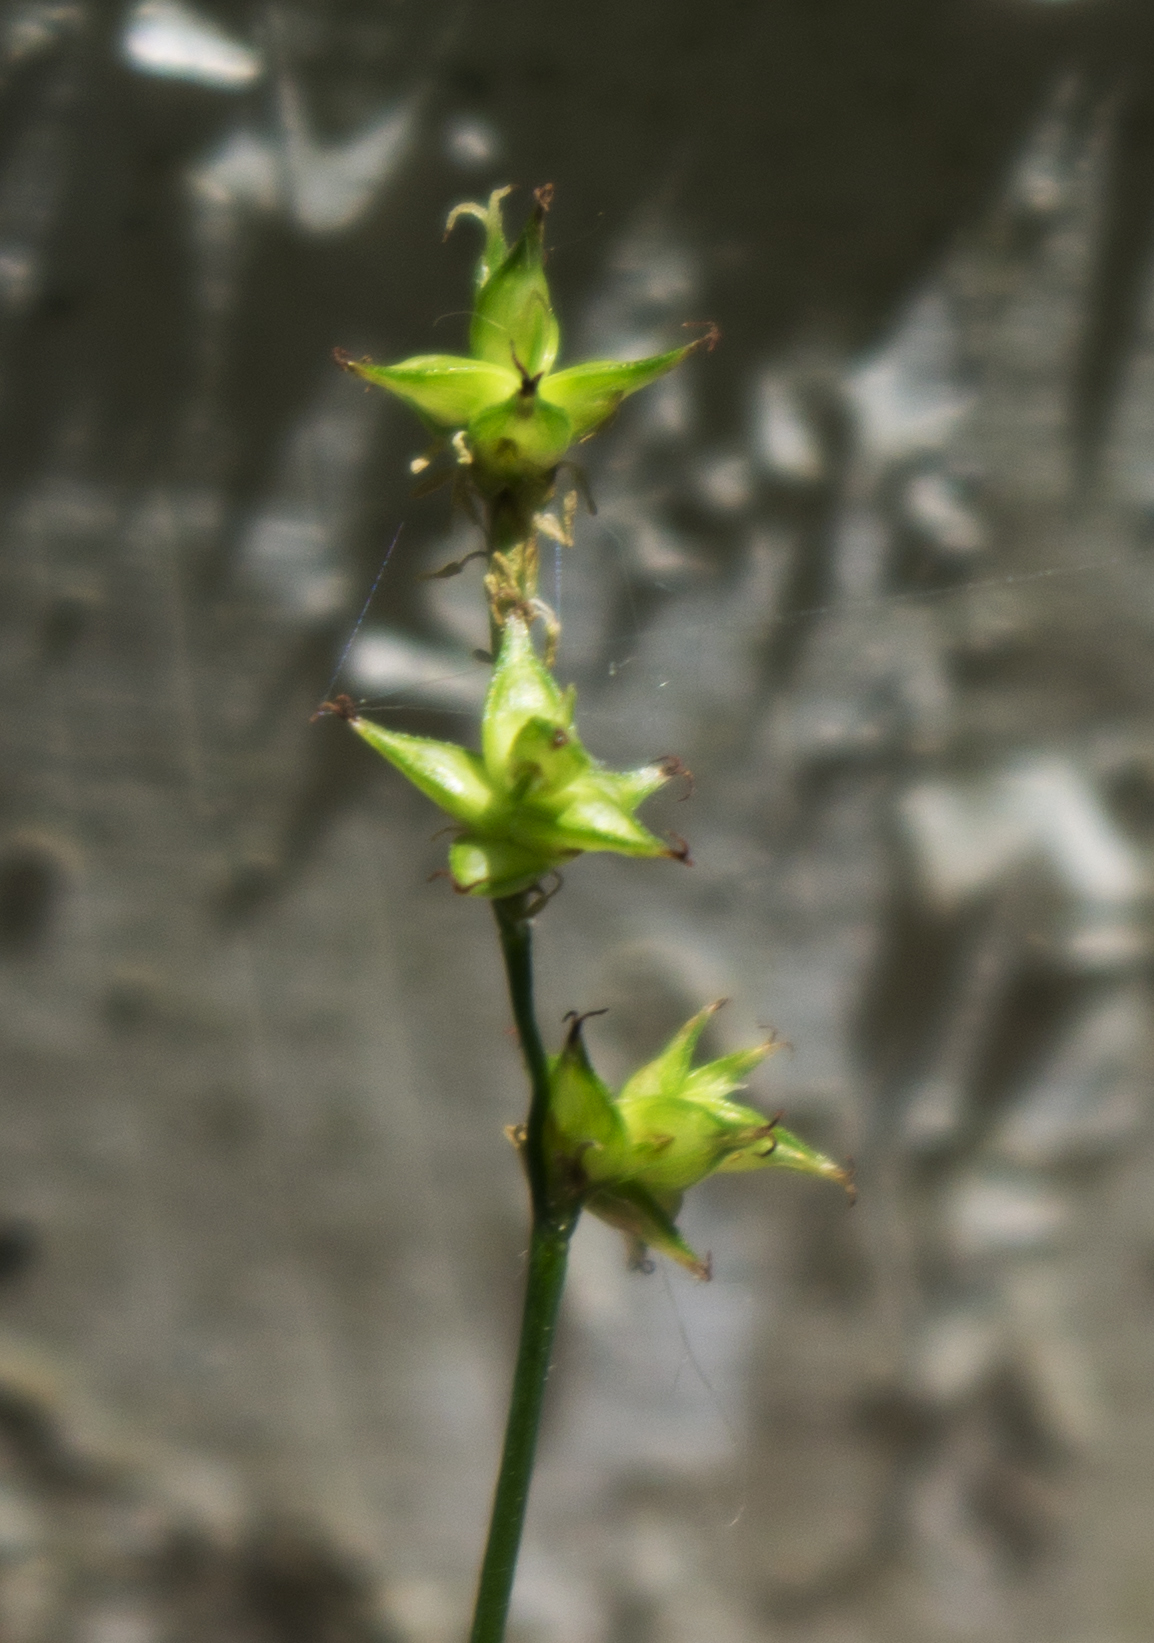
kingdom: Plantae
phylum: Tracheophyta
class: Liliopsida
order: Poales
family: Cyperaceae
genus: Carex
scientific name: Carex rosea
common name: Curly-styled wood sedge
